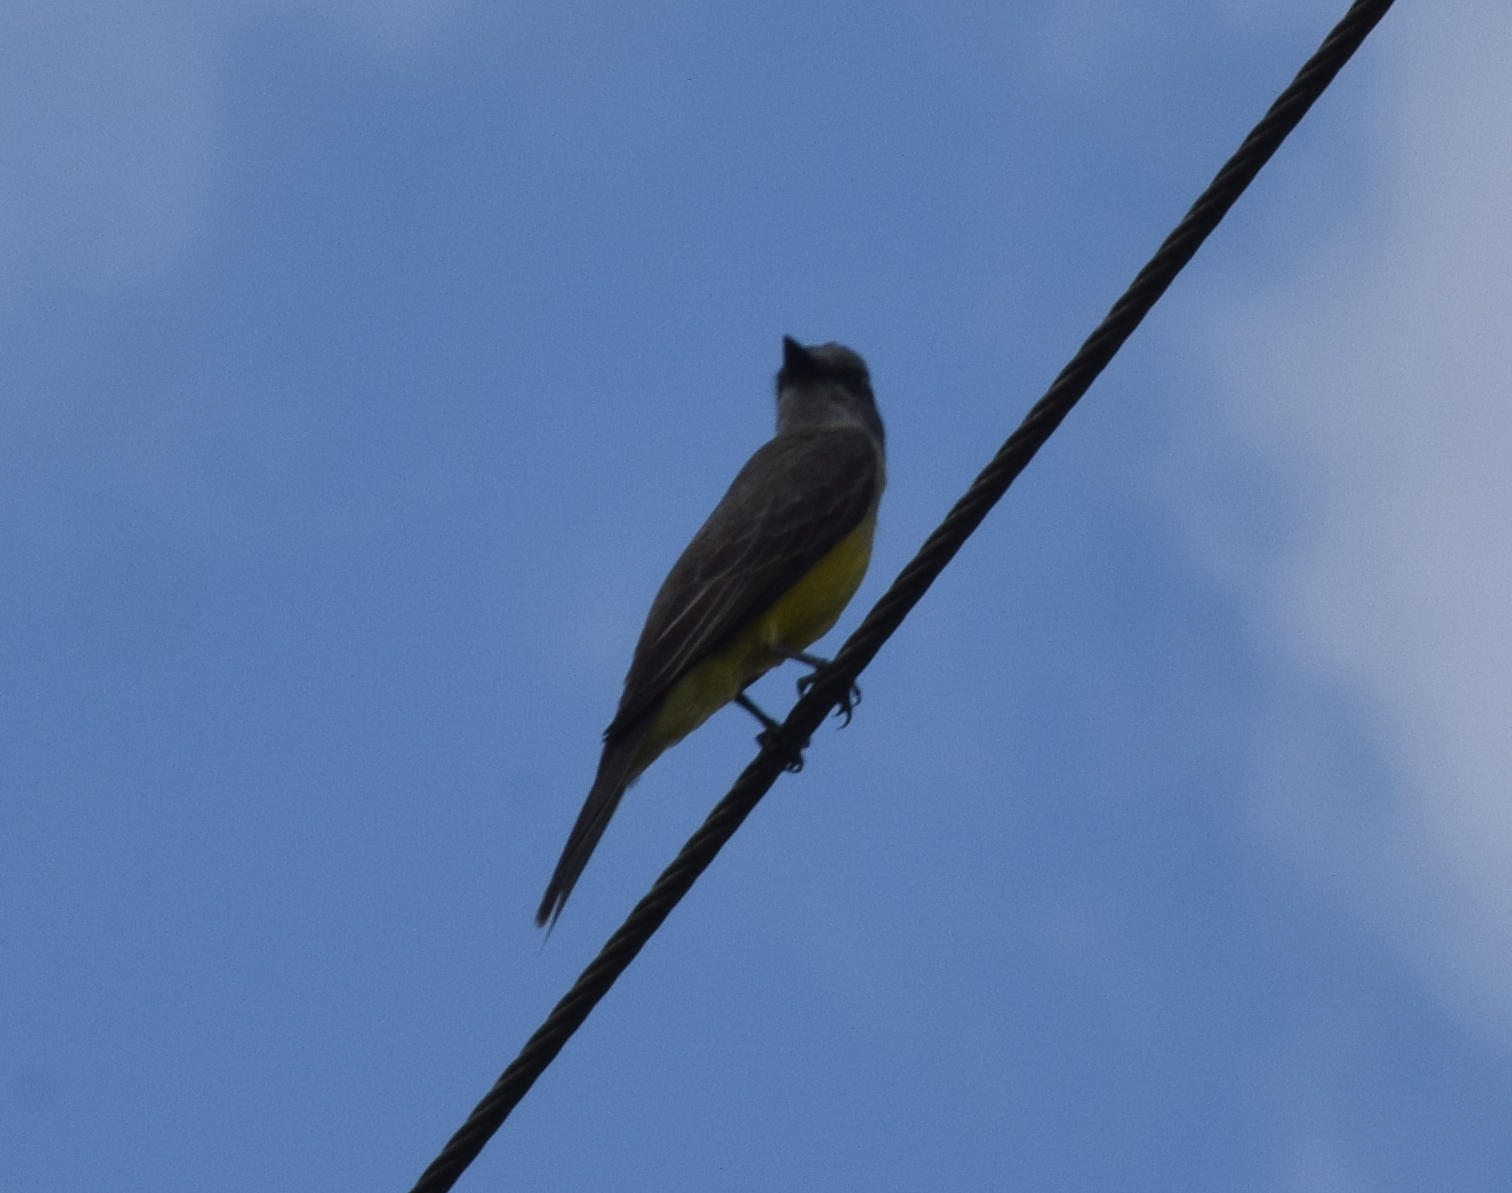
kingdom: Animalia
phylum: Chordata
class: Aves
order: Passeriformes
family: Tyrannidae
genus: Tyrannus
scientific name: Tyrannus melancholicus
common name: Tropical kingbird
